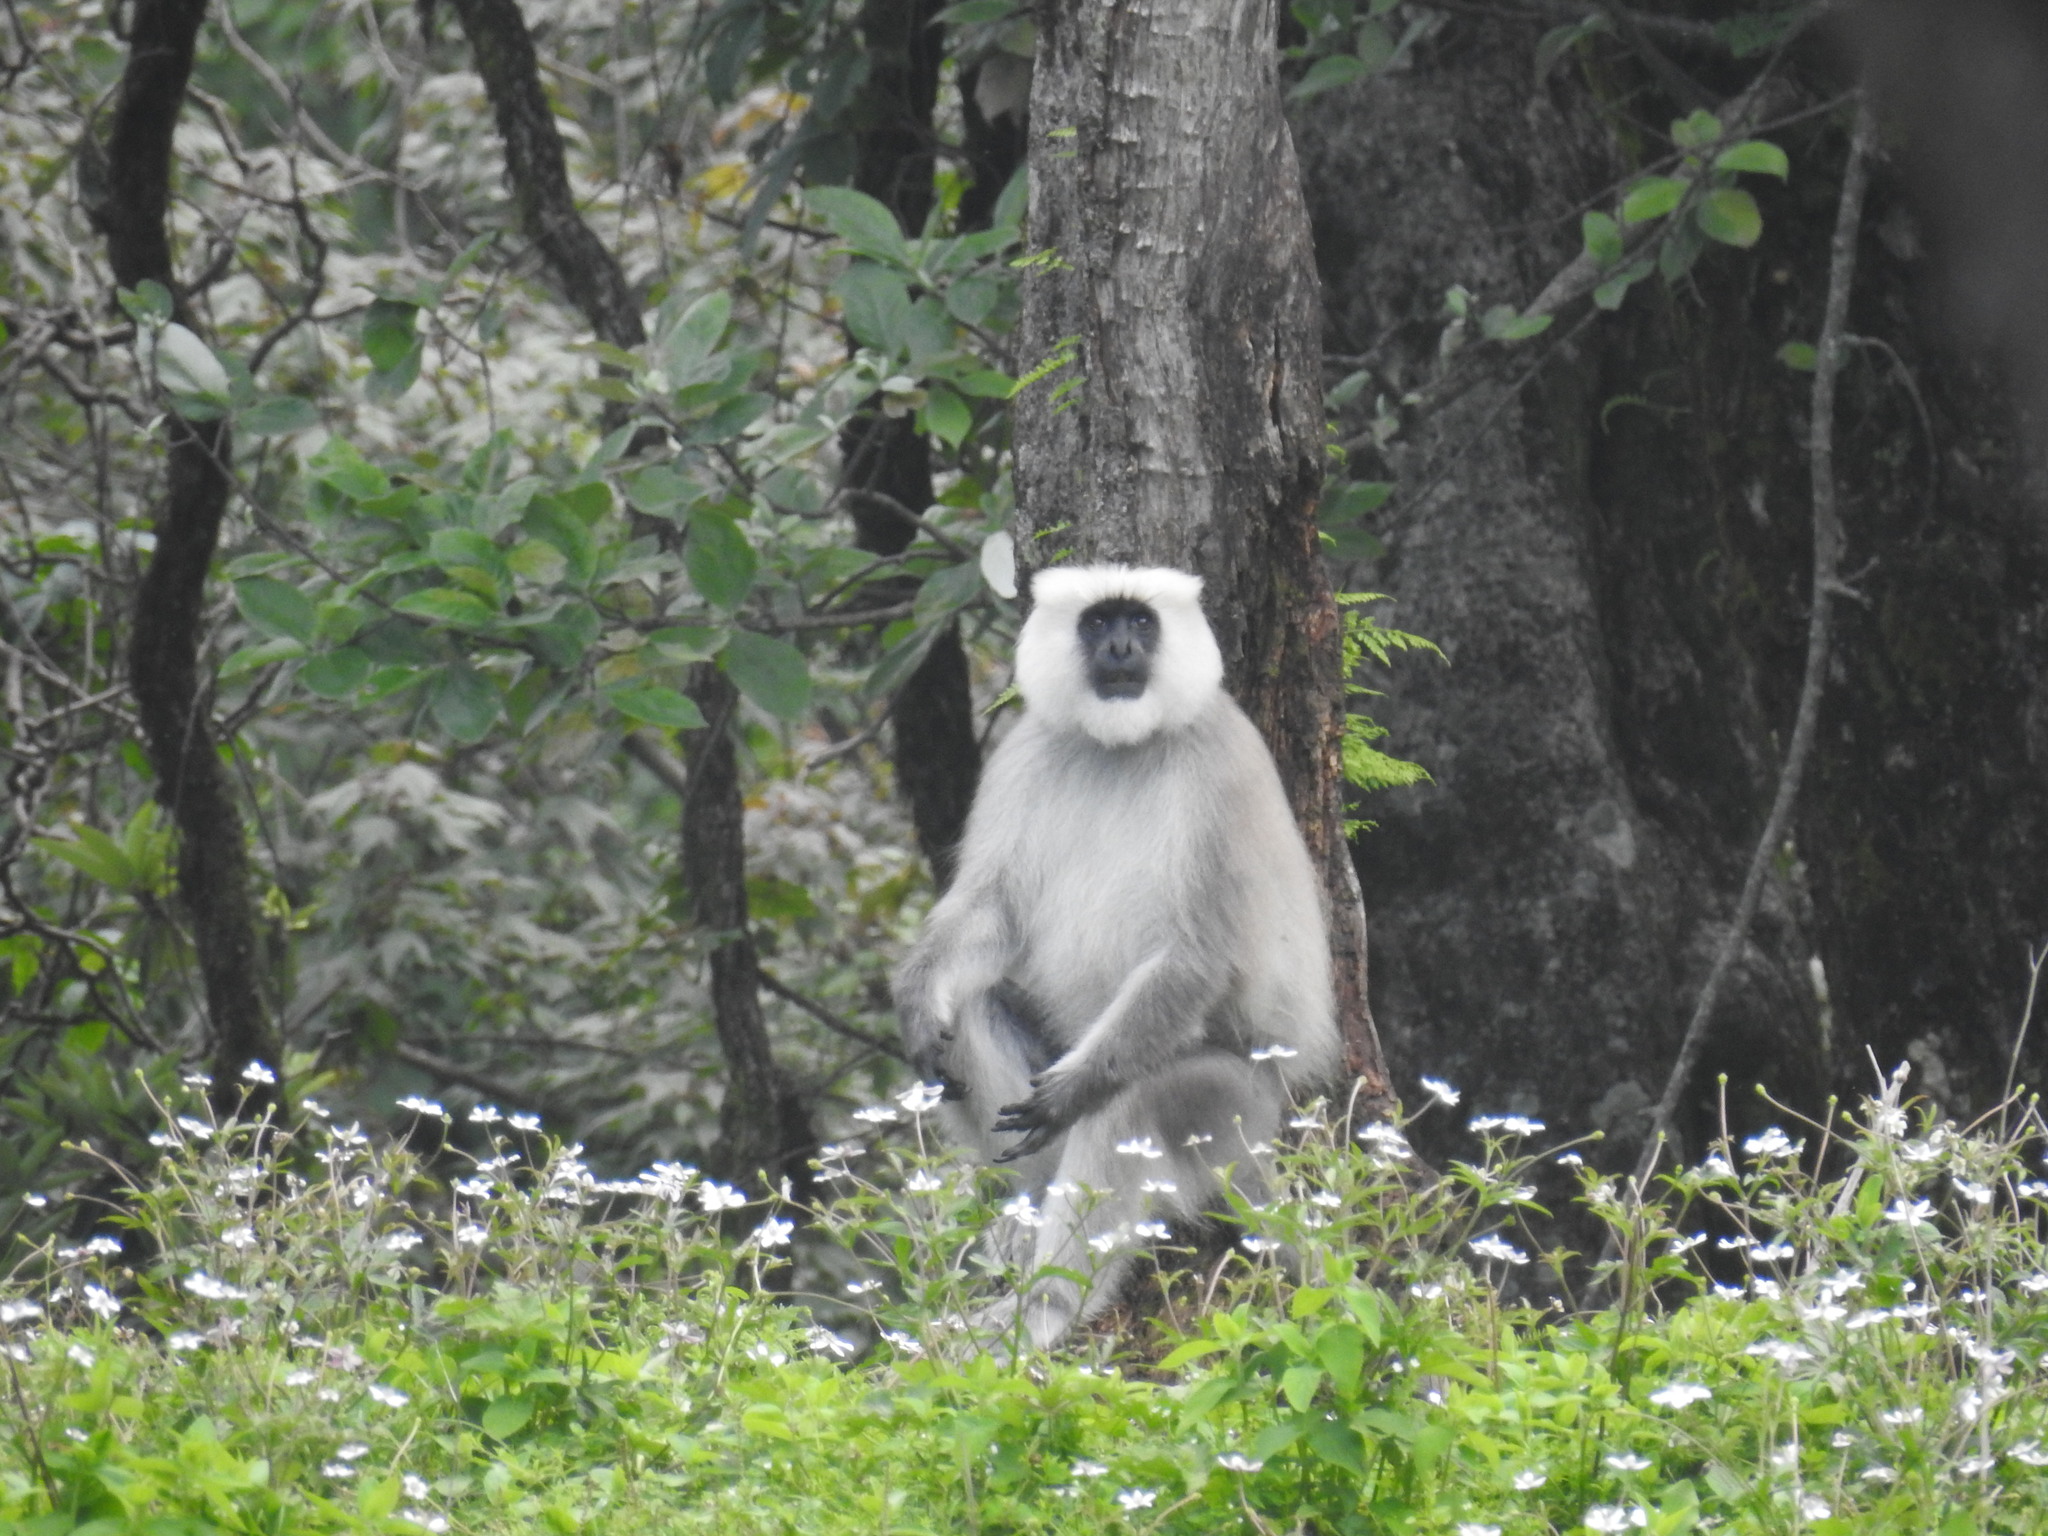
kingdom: Animalia
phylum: Chordata
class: Mammalia
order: Primates
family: Cercopithecidae
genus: Semnopithecus
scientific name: Semnopithecus schistaceus
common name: Nepal gray langur
